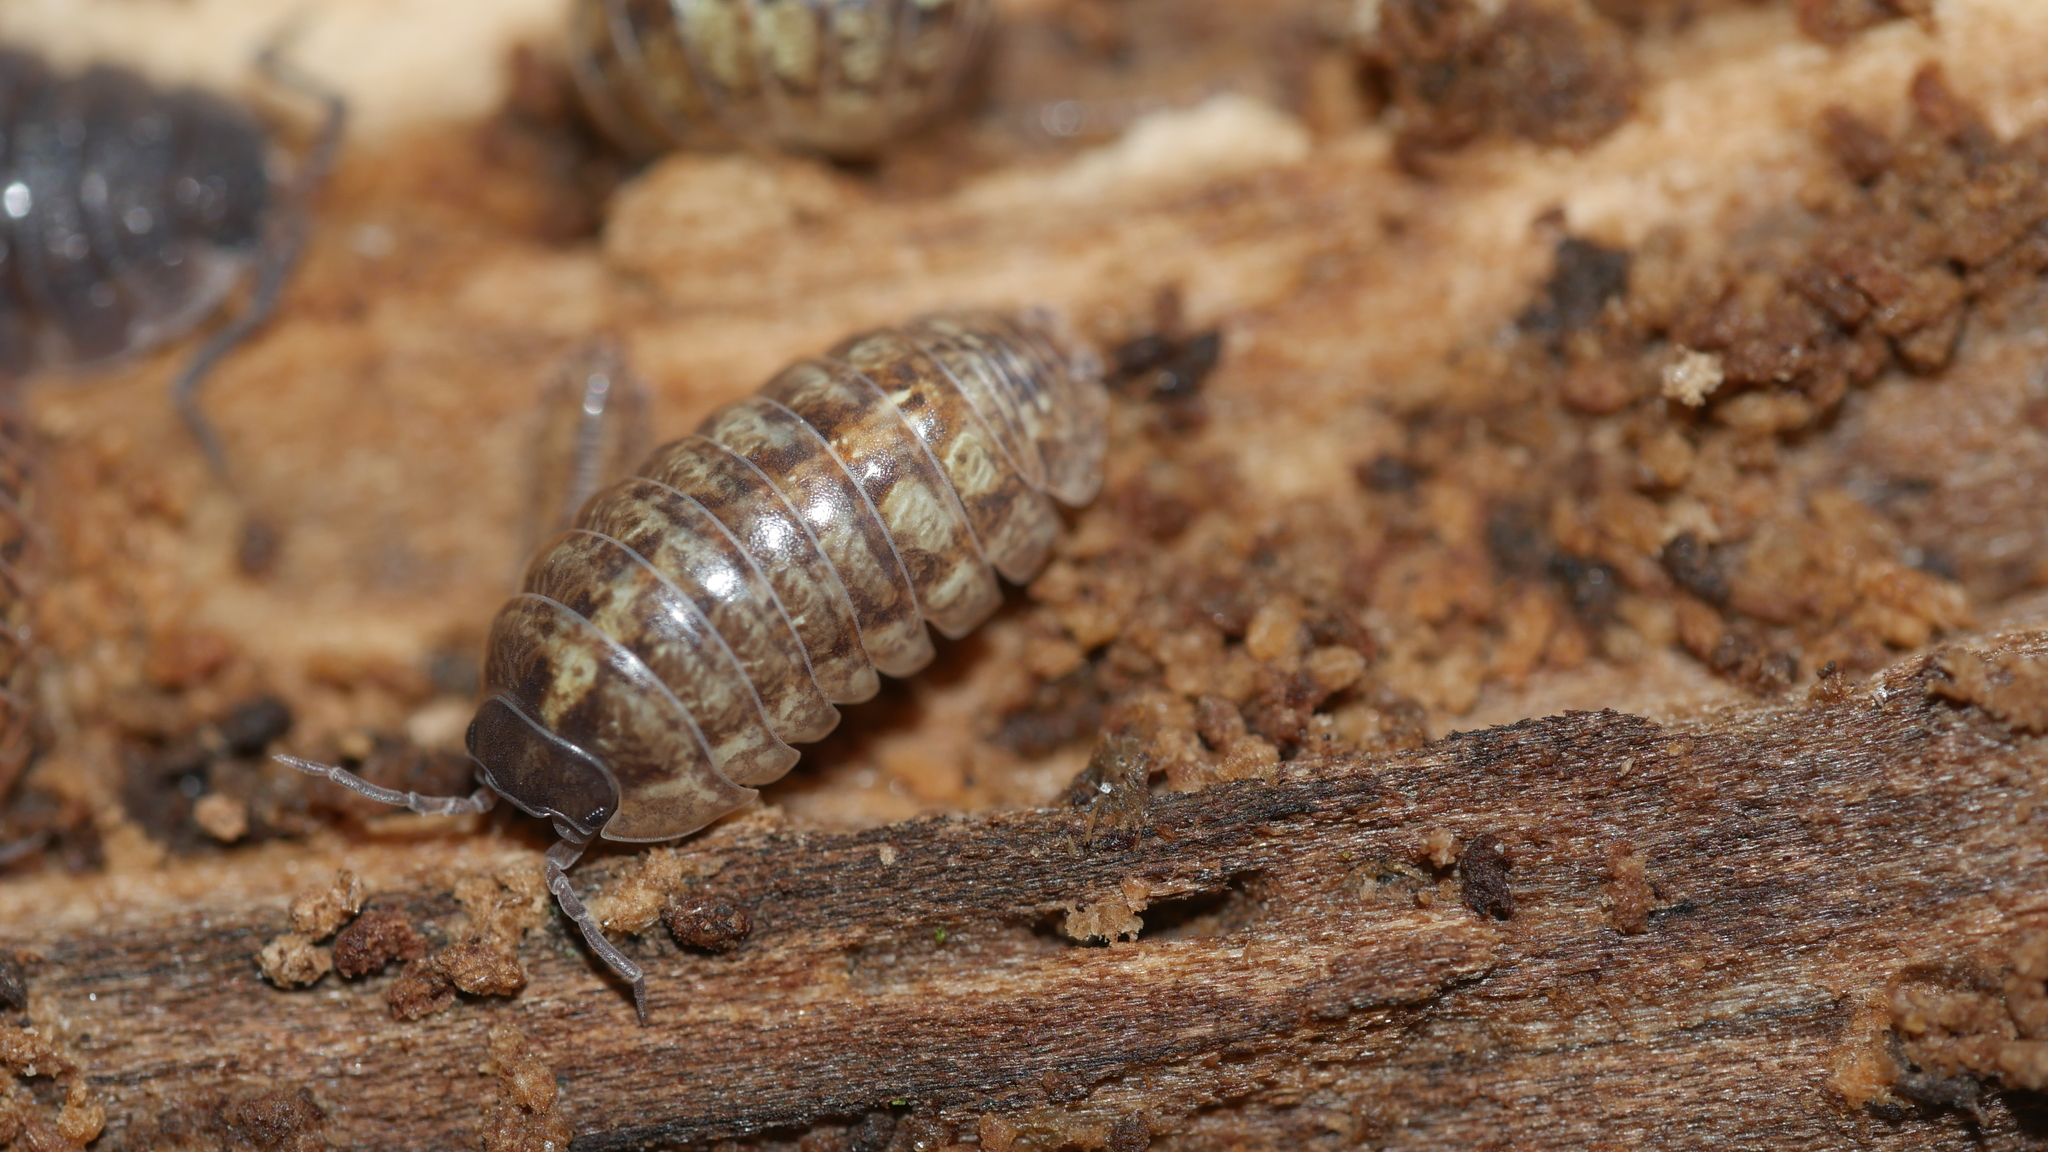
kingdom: Animalia
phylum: Arthropoda
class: Malacostraca
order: Isopoda
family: Armadillidiidae
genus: Armadillidium
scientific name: Armadillidium vulgare
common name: Common pill woodlouse
